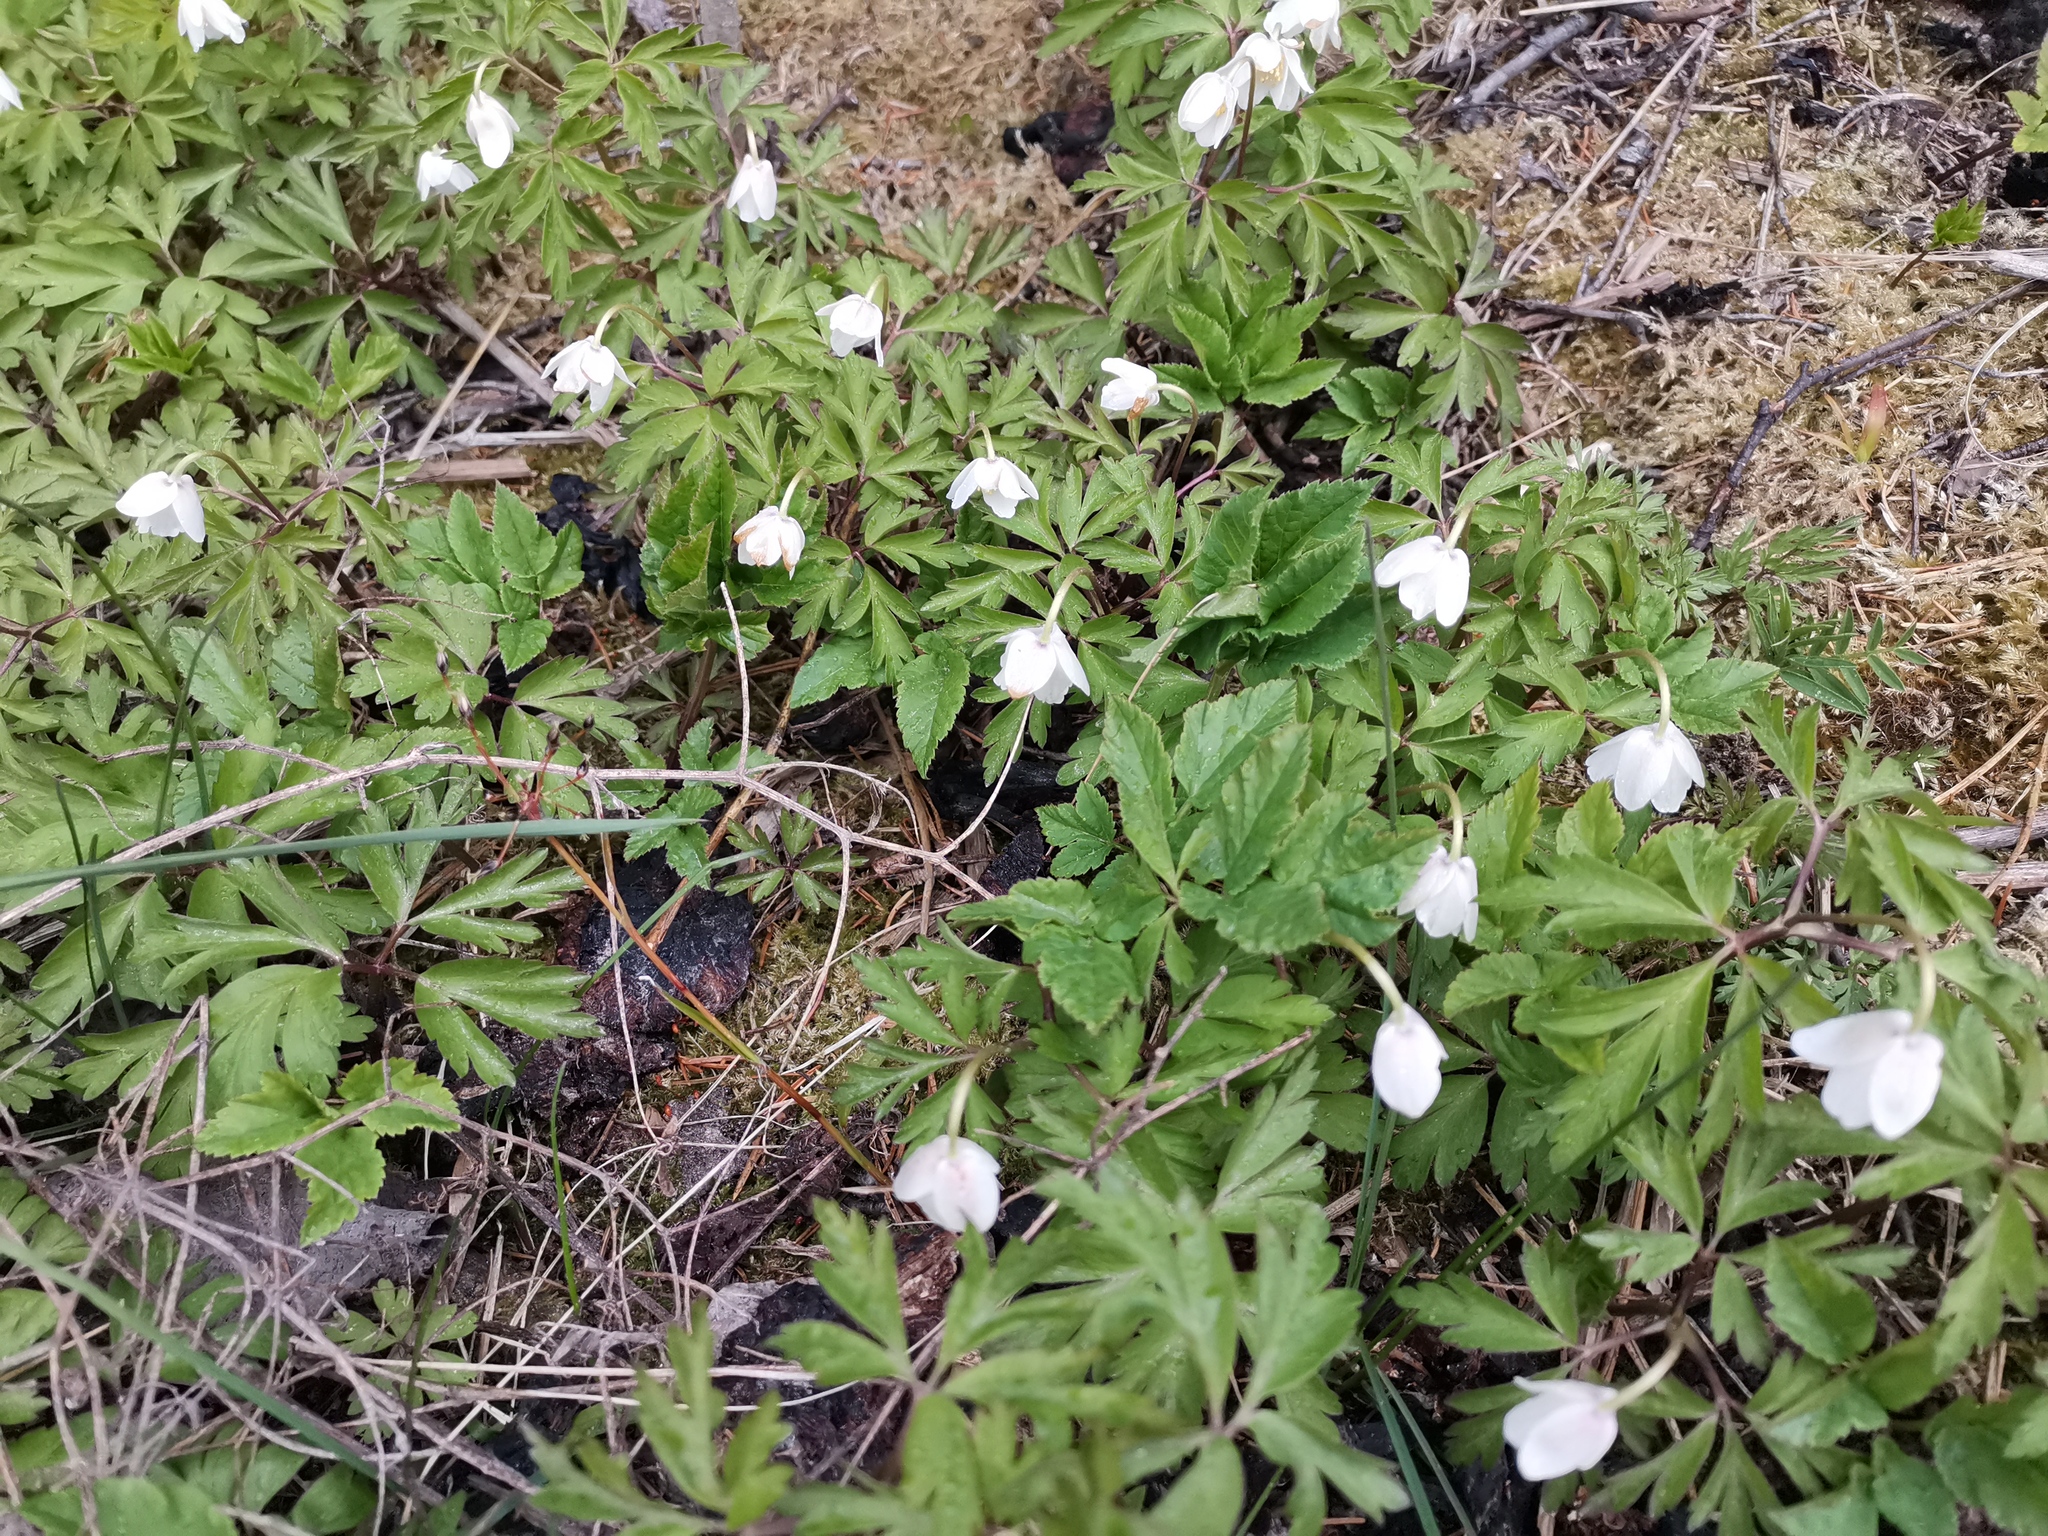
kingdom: Plantae
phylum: Tracheophyta
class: Magnoliopsida
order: Ranunculales
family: Ranunculaceae
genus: Anemone
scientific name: Anemone nemorosa
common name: Wood anemone
